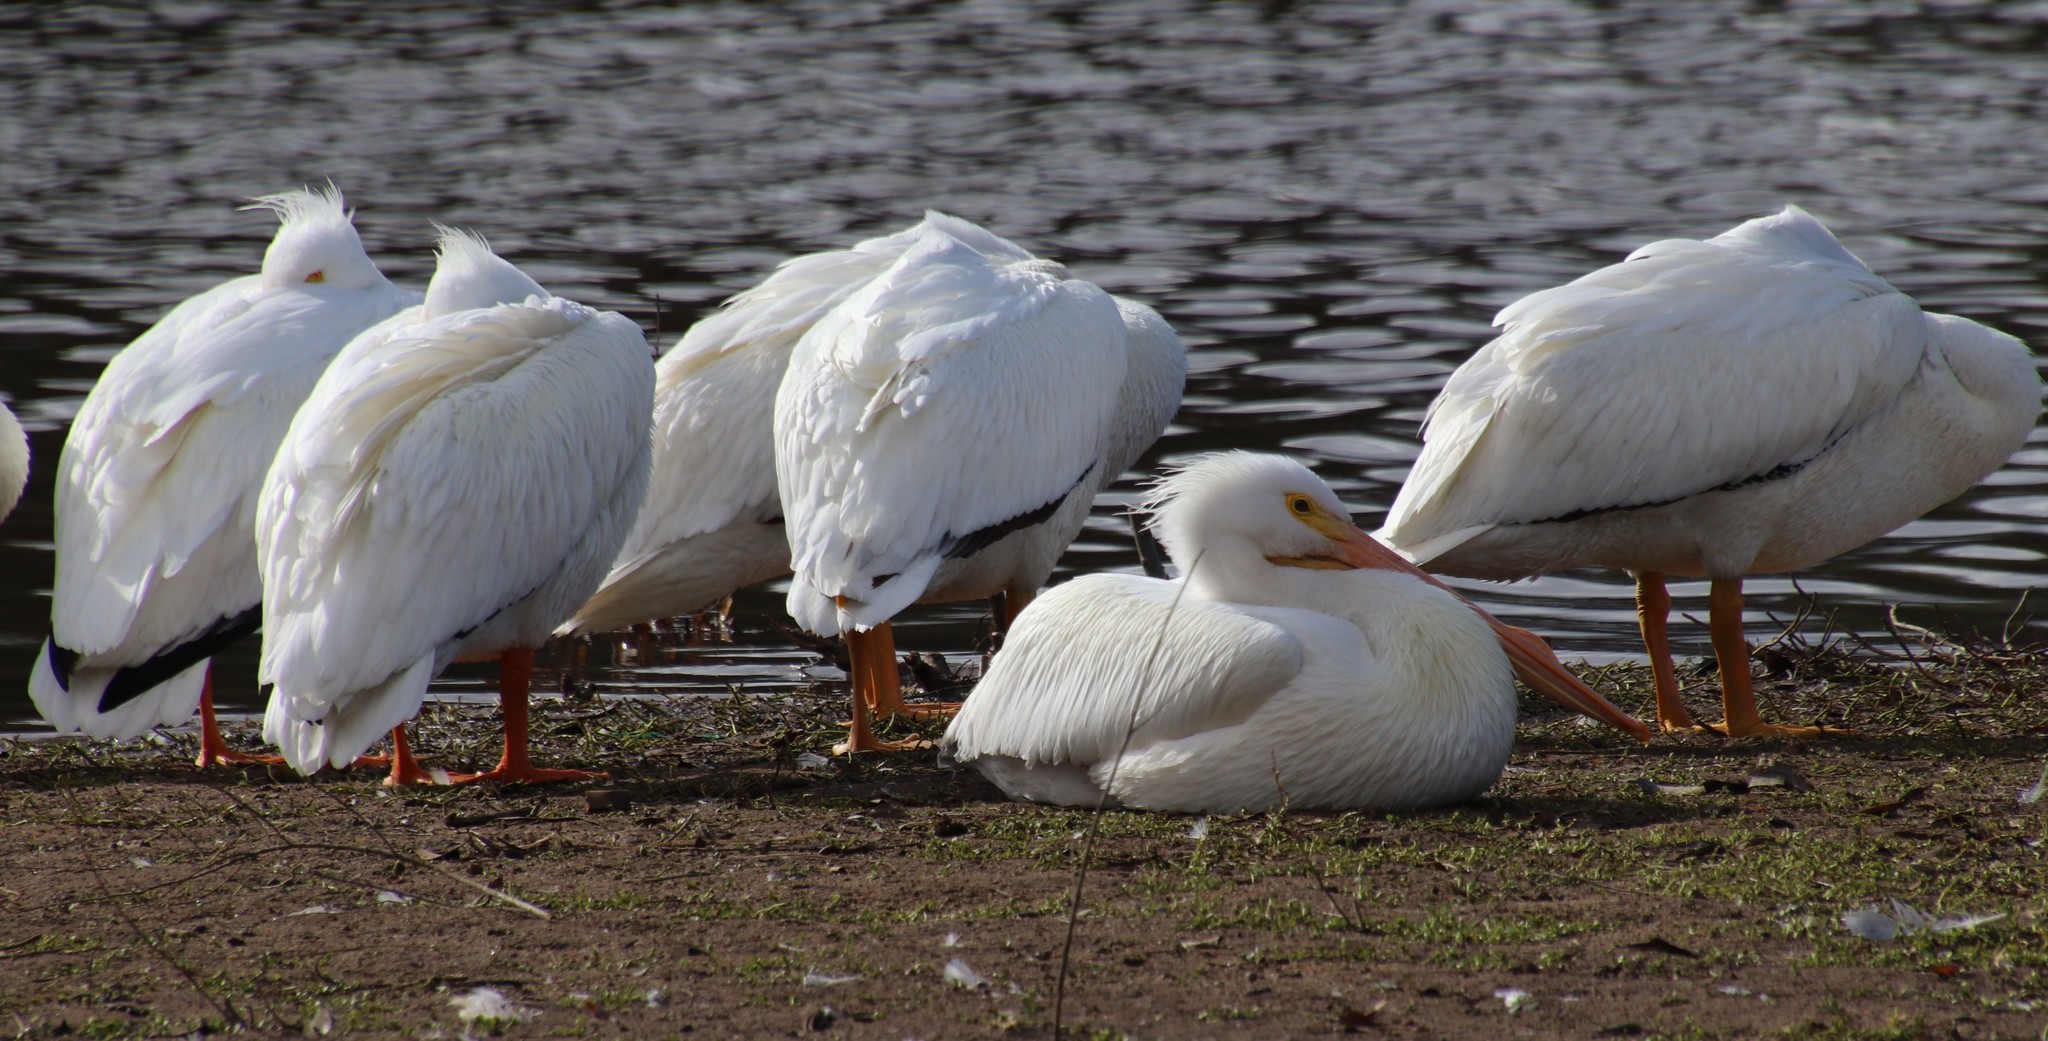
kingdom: Animalia
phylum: Chordata
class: Aves
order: Pelecaniformes
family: Pelecanidae
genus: Pelecanus
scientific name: Pelecanus erythrorhynchos
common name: American white pelican
